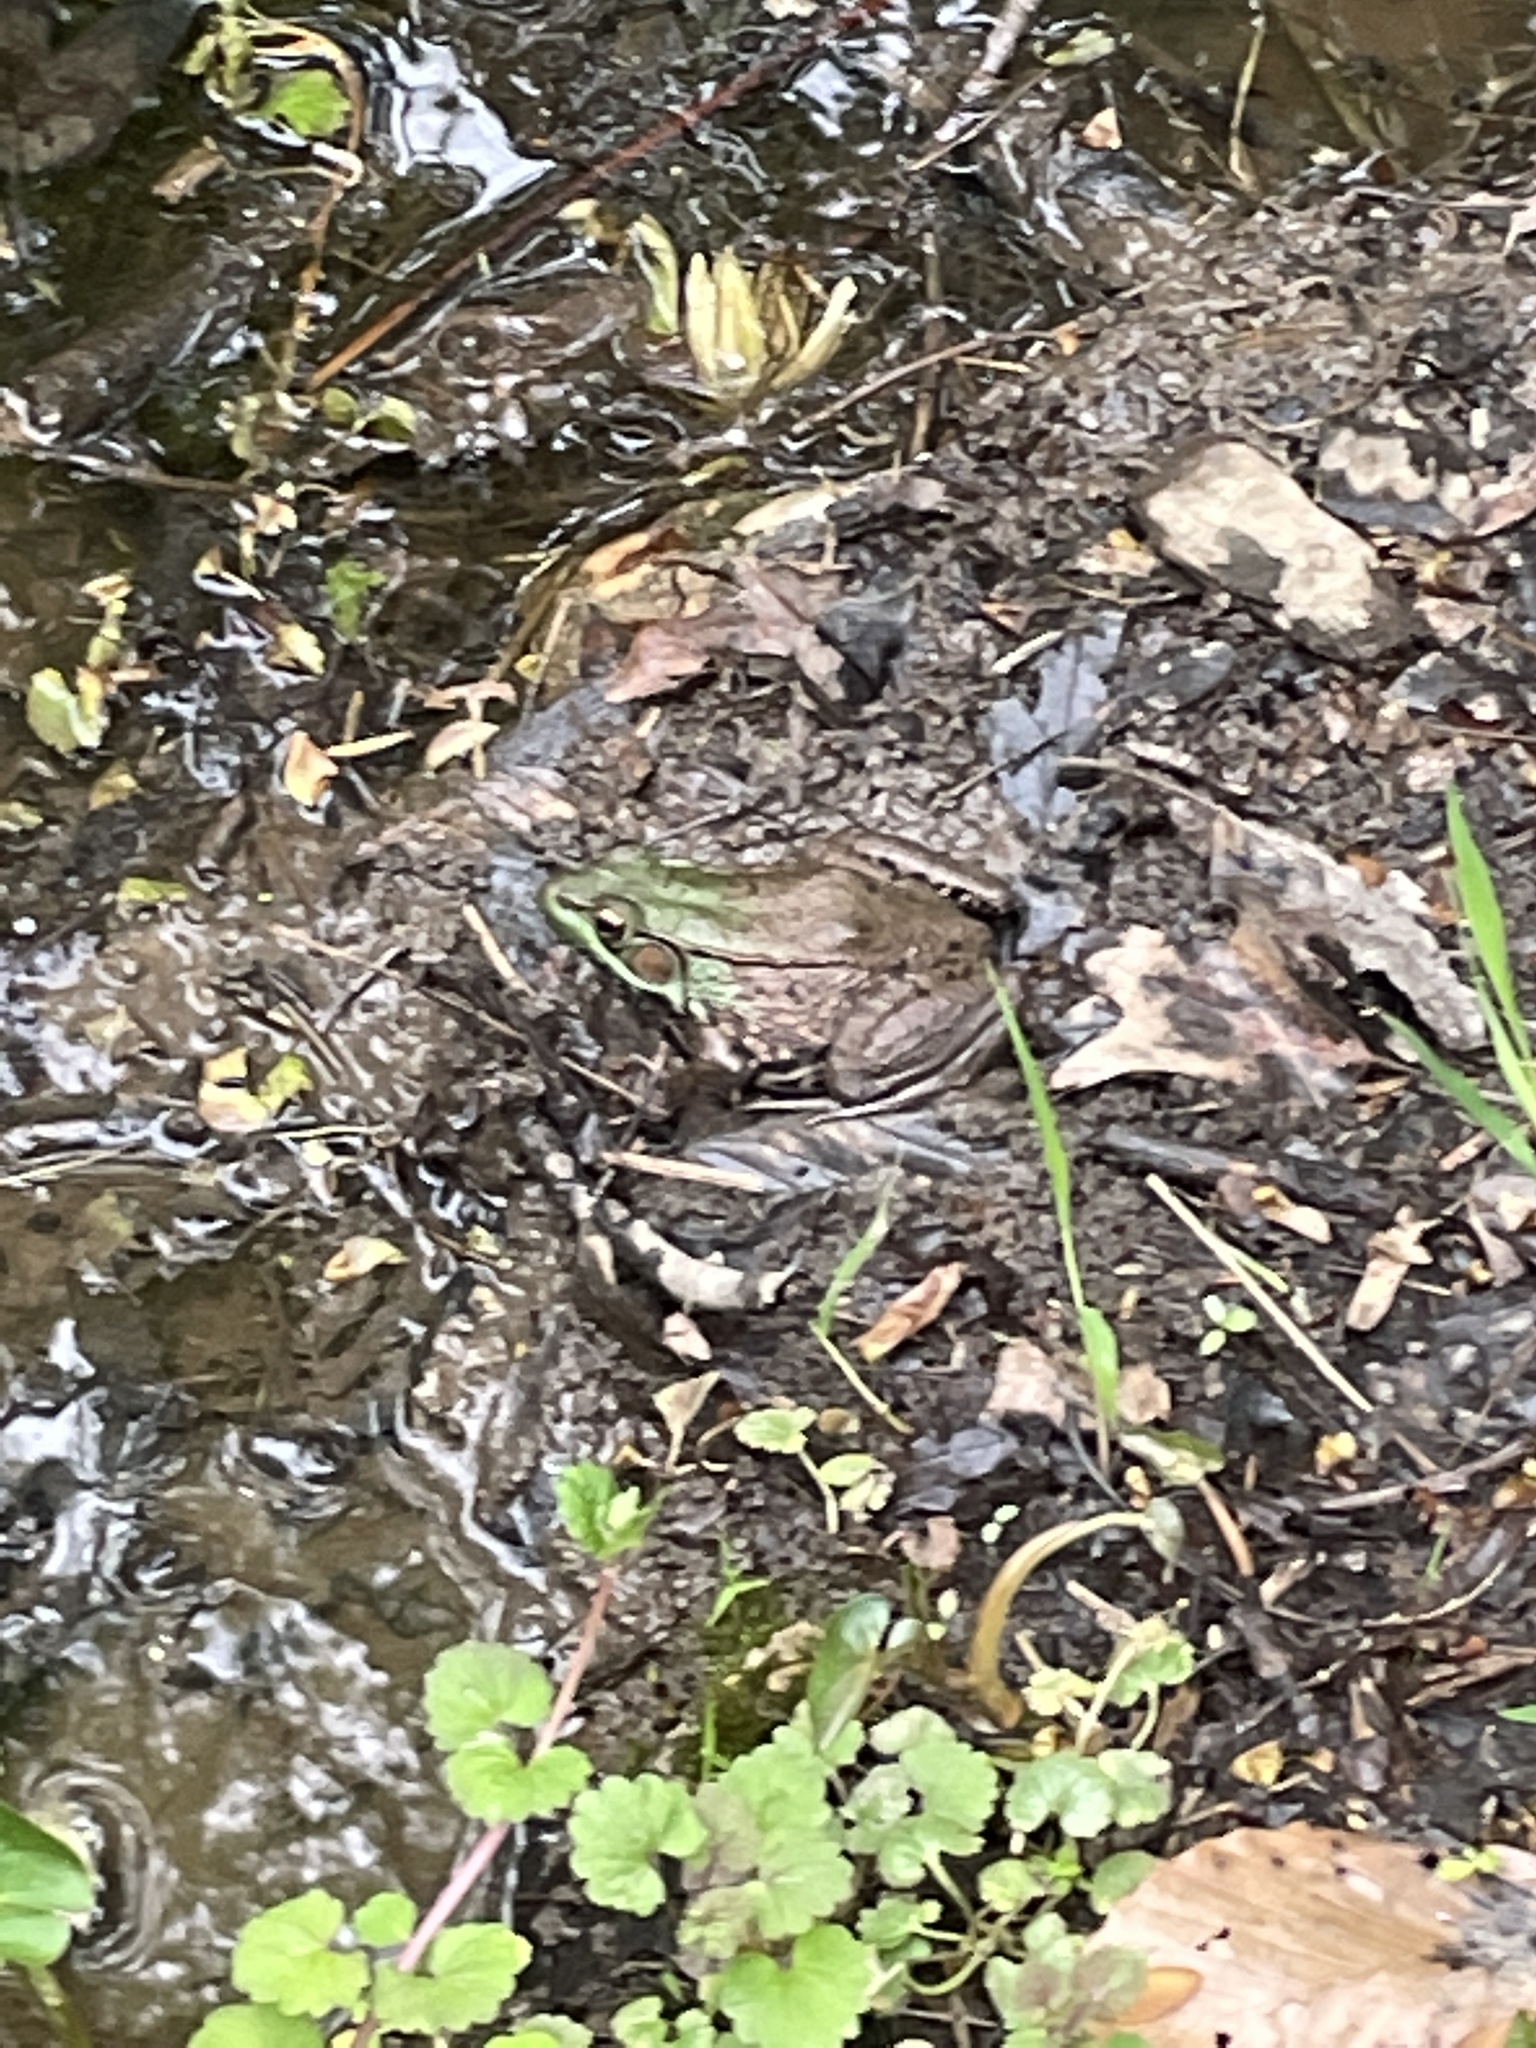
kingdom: Animalia
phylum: Chordata
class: Amphibia
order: Anura
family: Ranidae
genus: Lithobates
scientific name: Lithobates clamitans
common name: Green frog
